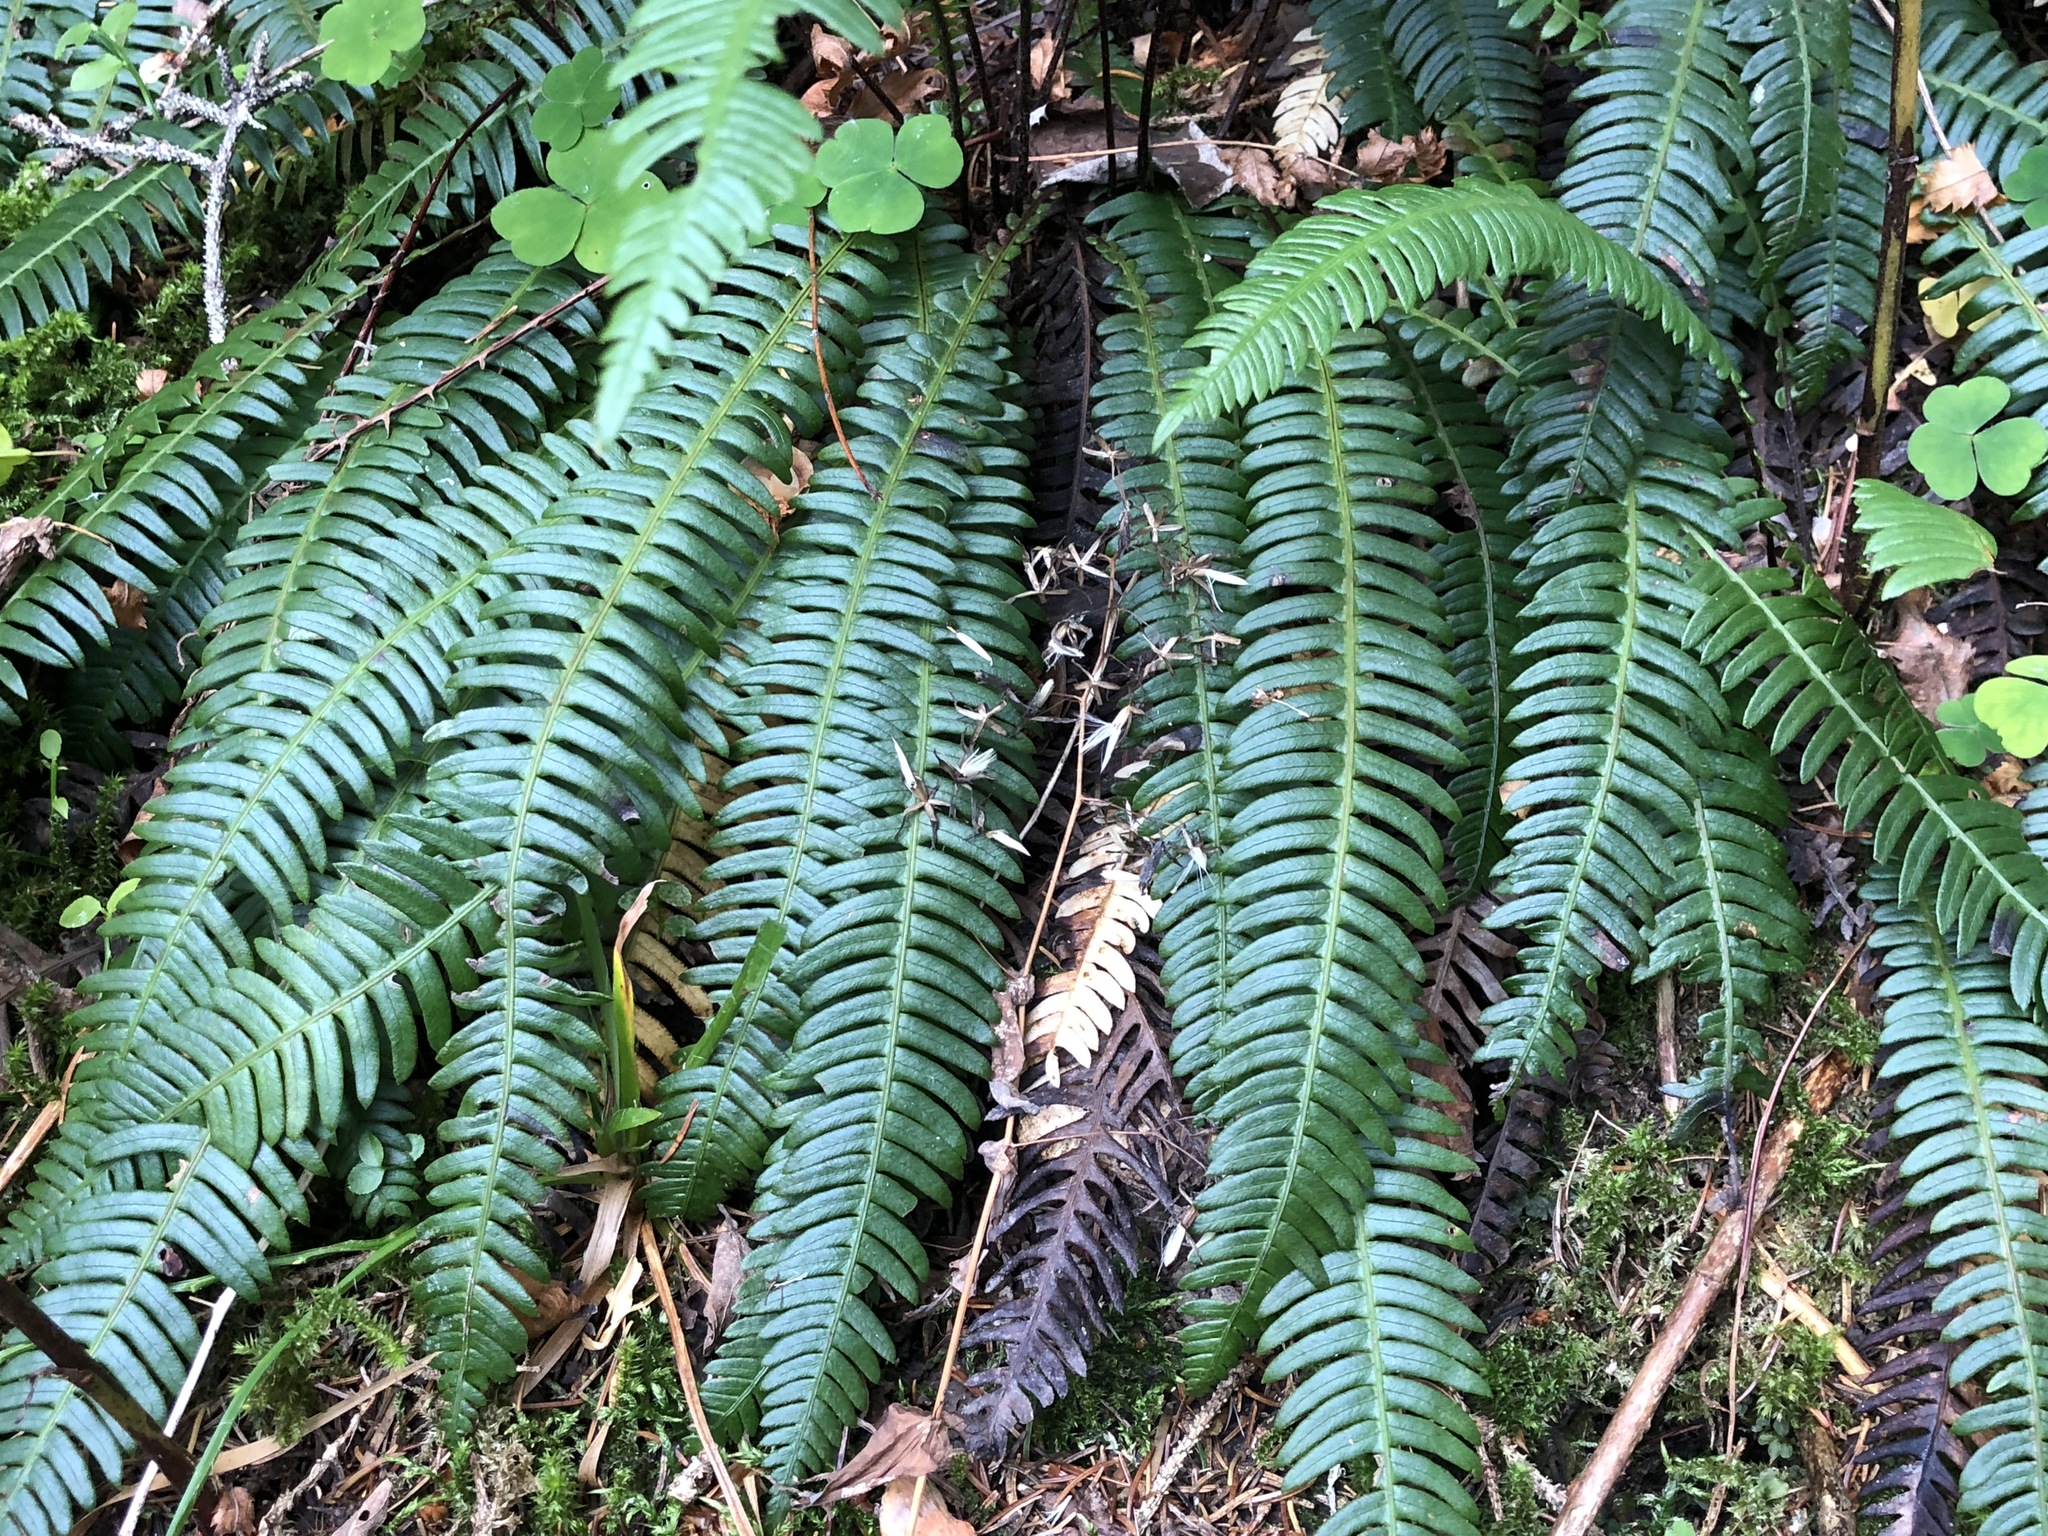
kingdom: Plantae
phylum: Tracheophyta
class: Polypodiopsida
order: Polypodiales
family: Blechnaceae
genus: Struthiopteris
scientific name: Struthiopteris spicant
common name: Deer fern
